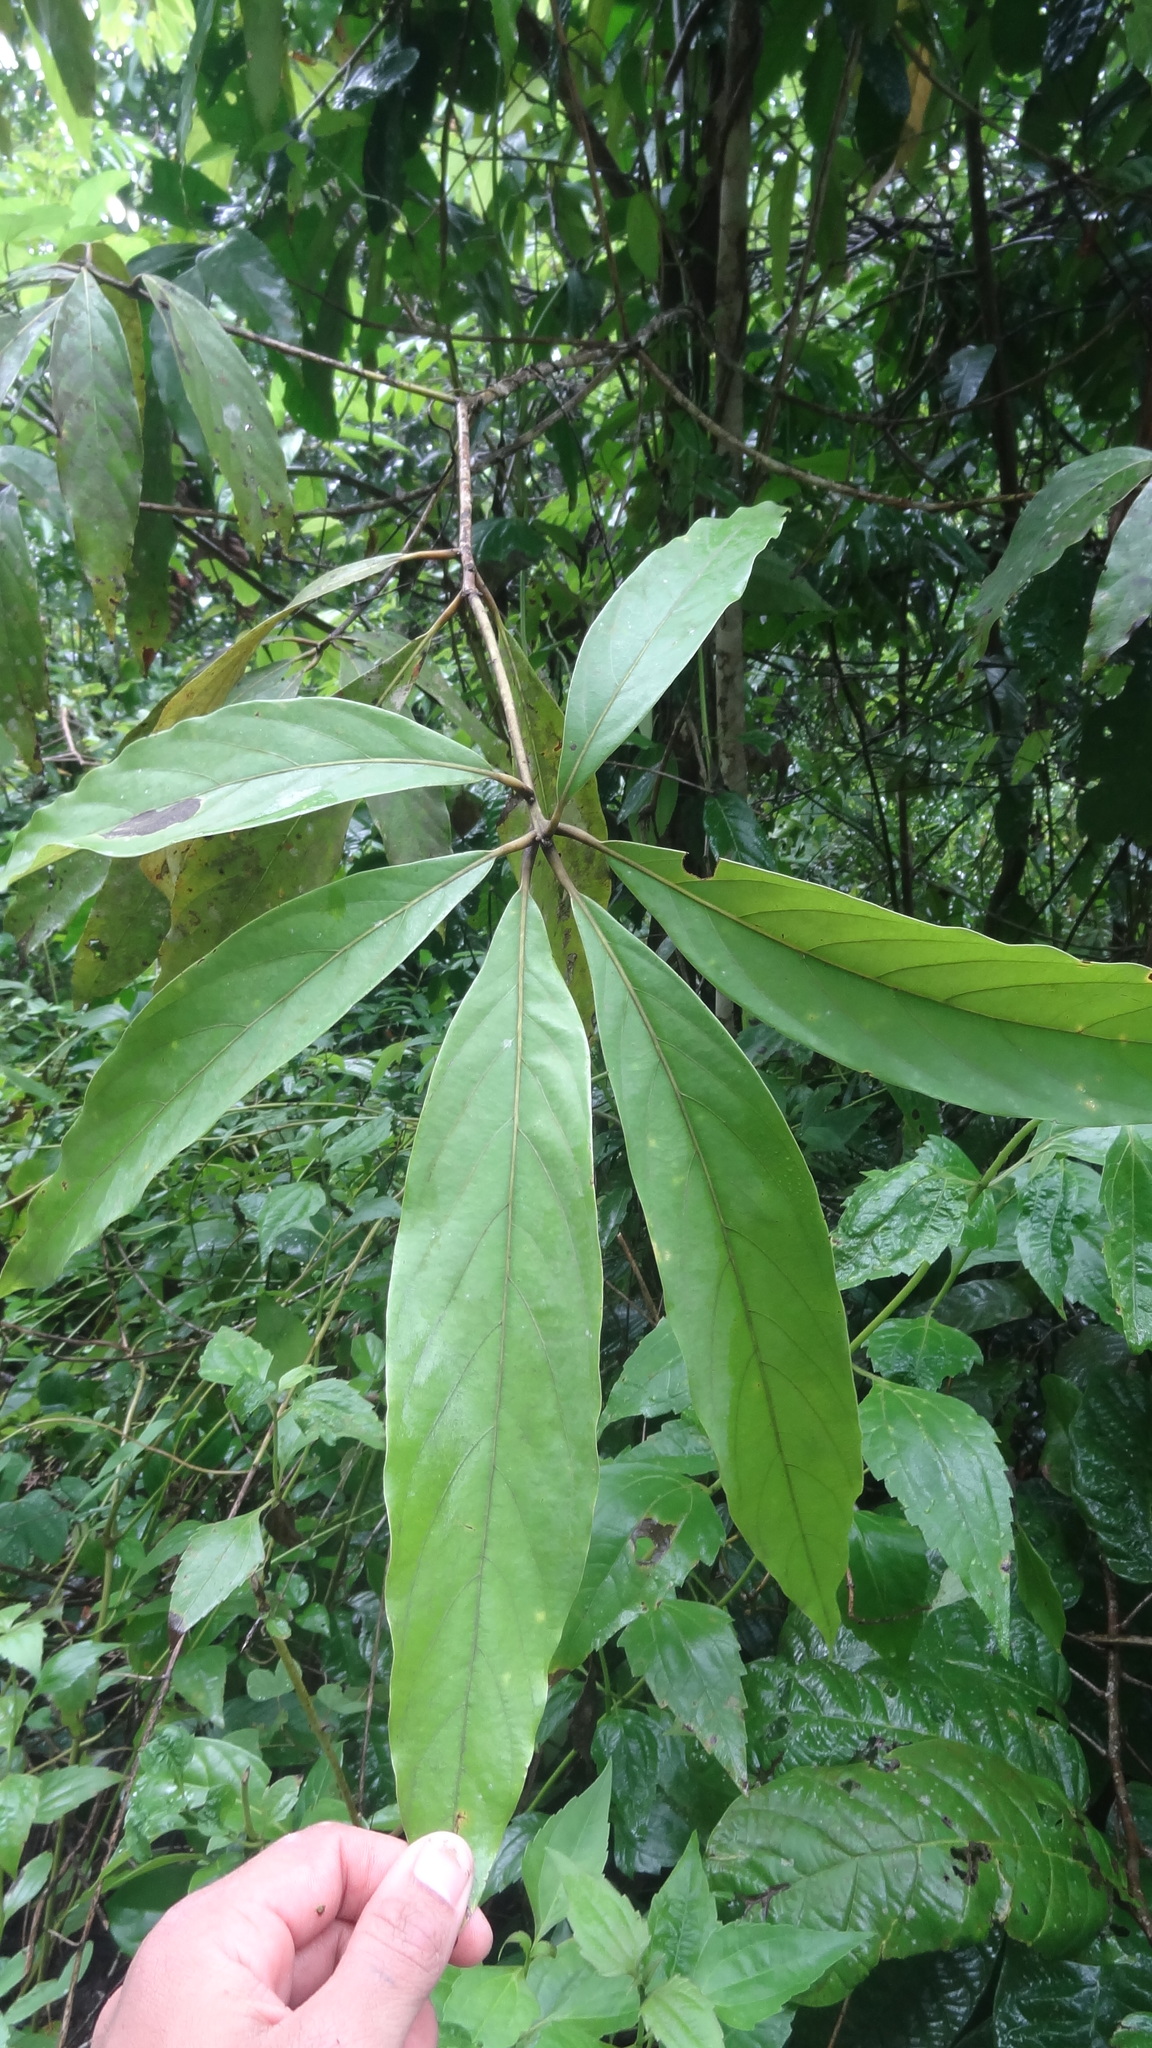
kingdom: Plantae
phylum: Tracheophyta
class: Magnoliopsida
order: Laurales
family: Lauraceae
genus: Actinodaphne
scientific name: Actinodaphne wightiana
